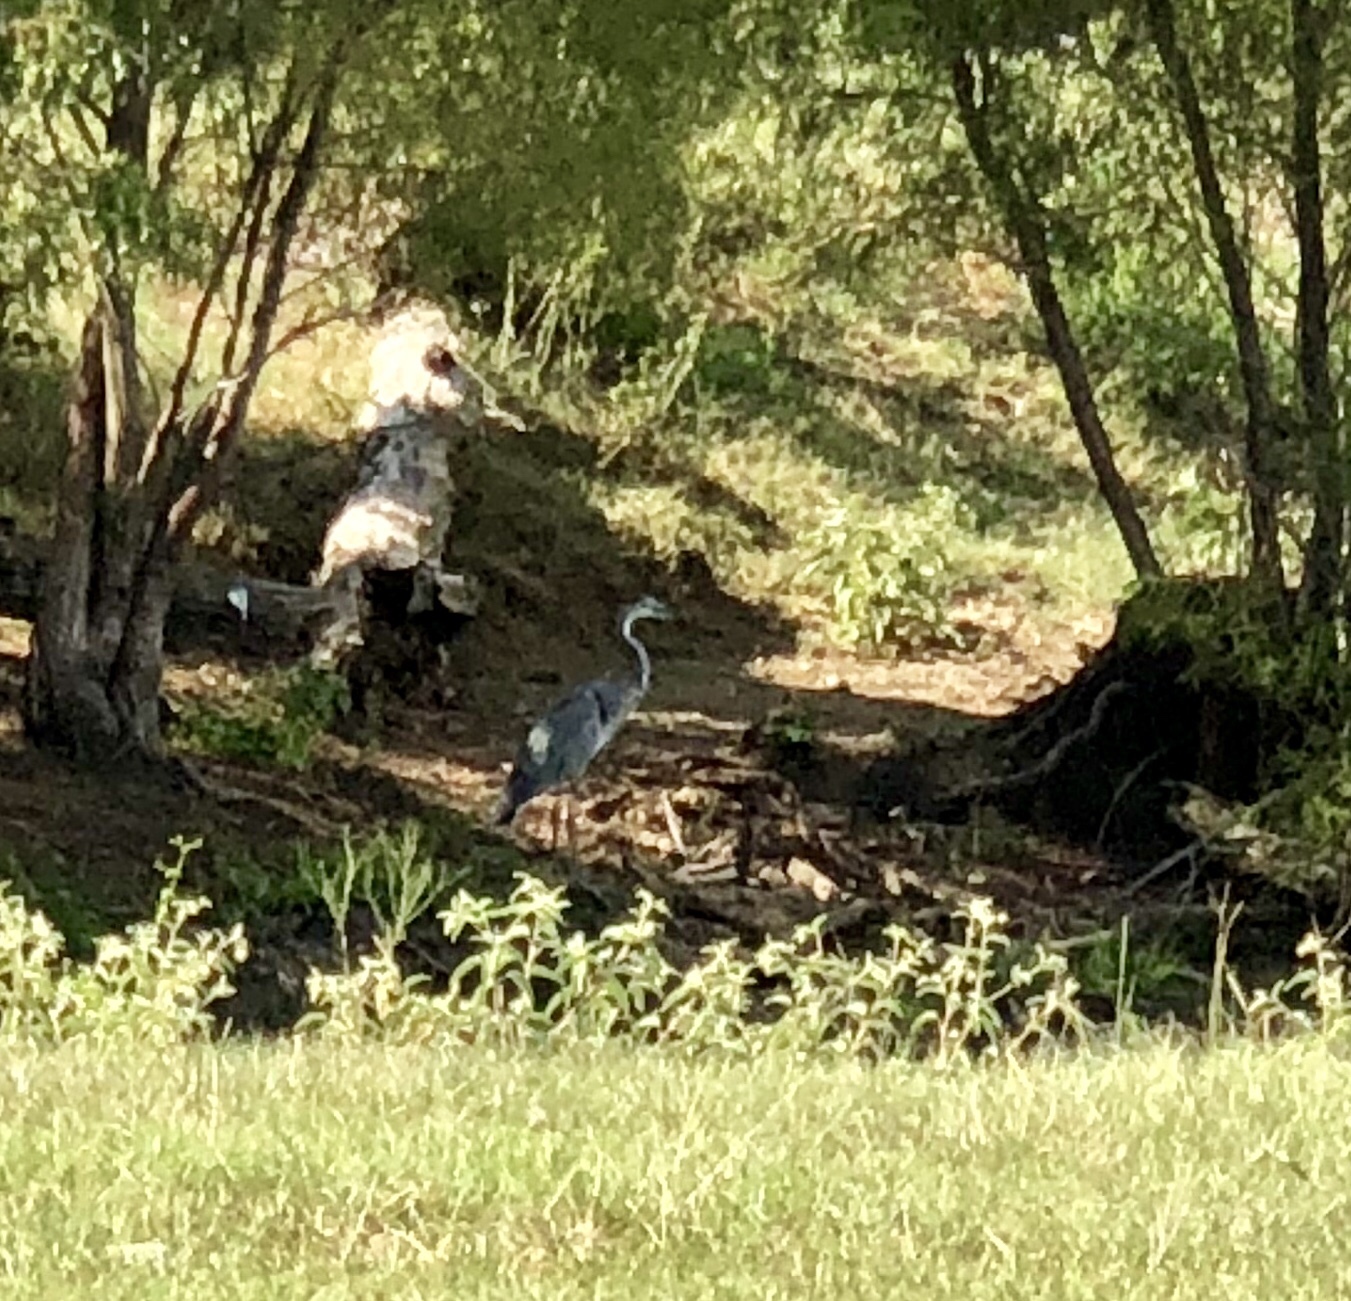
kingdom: Animalia
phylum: Chordata
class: Aves
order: Pelecaniformes
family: Ardeidae
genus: Ardea
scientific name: Ardea herodias
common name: Great blue heron
